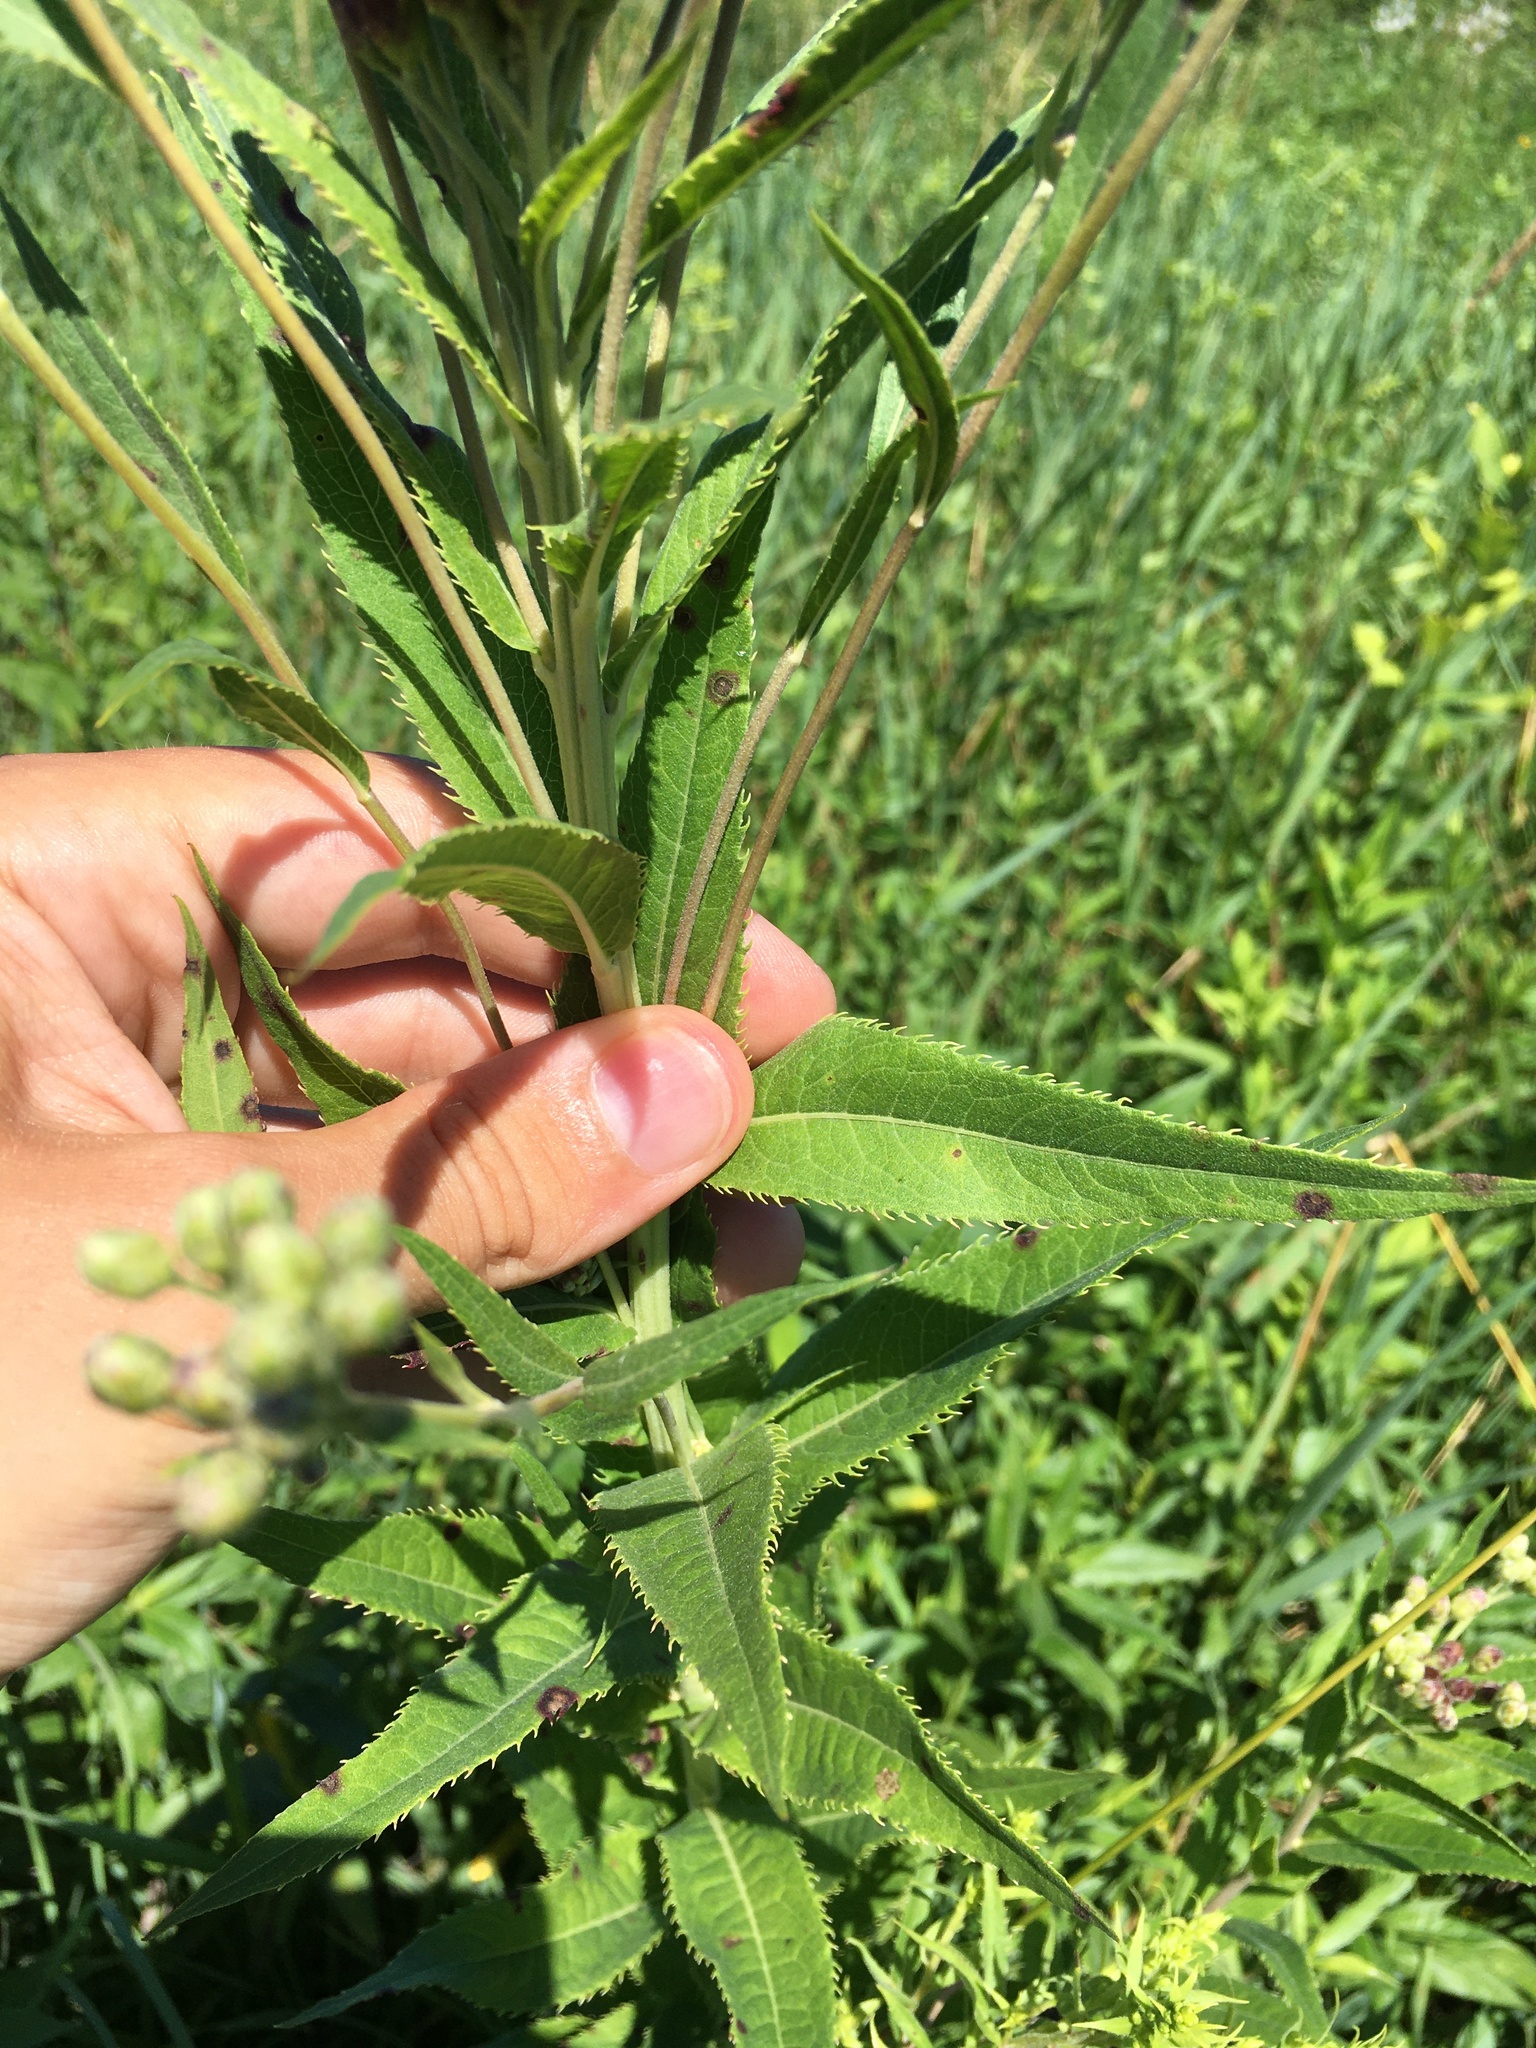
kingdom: Plantae
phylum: Tracheophyta
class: Magnoliopsida
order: Asterales
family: Asteraceae
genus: Vernonia
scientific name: Vernonia fasciculata
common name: Fascicled ironweed
